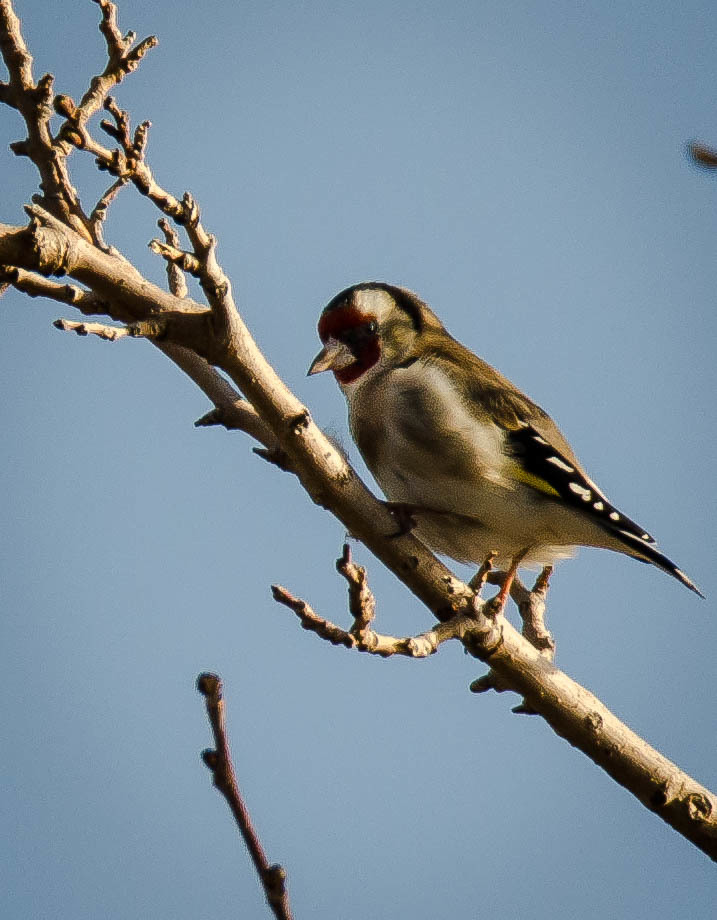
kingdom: Animalia
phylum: Chordata
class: Aves
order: Passeriformes
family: Fringillidae
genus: Carduelis
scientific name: Carduelis carduelis
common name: European goldfinch
